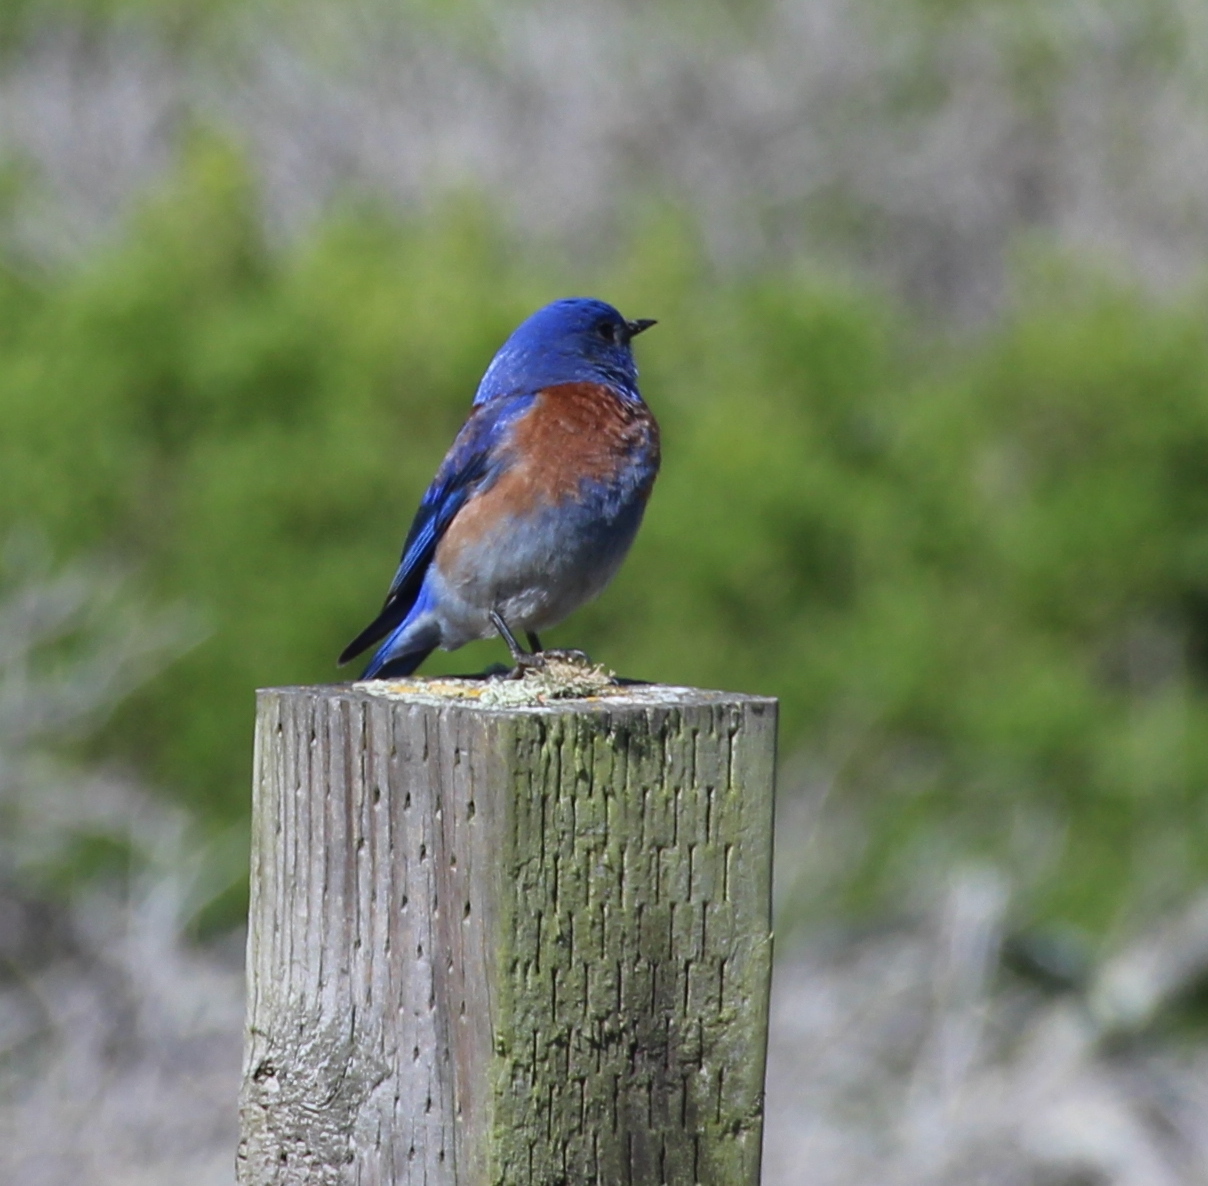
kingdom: Animalia
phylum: Chordata
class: Aves
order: Passeriformes
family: Turdidae
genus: Sialia
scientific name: Sialia mexicana
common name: Western bluebird
